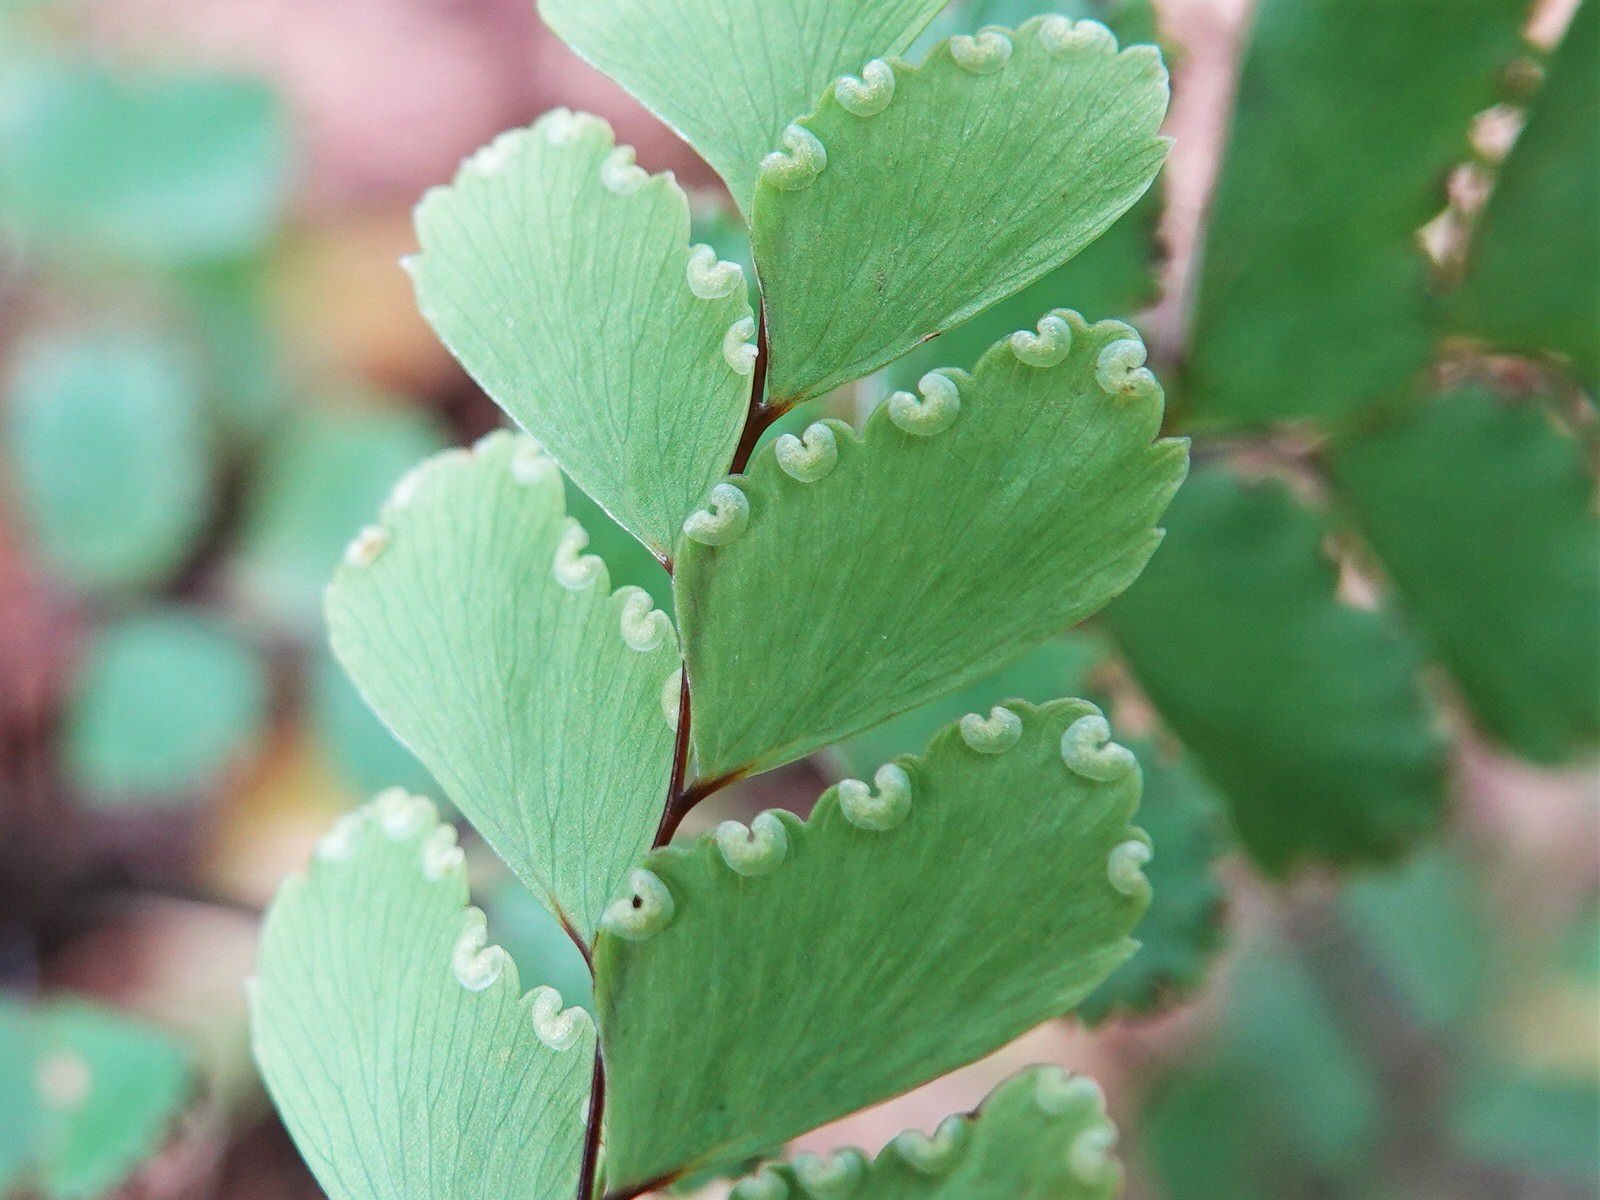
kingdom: Plantae
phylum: Tracheophyta
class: Polypodiopsida
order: Polypodiales
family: Pteridaceae
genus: Adiantum
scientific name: Adiantum cunninghamii
